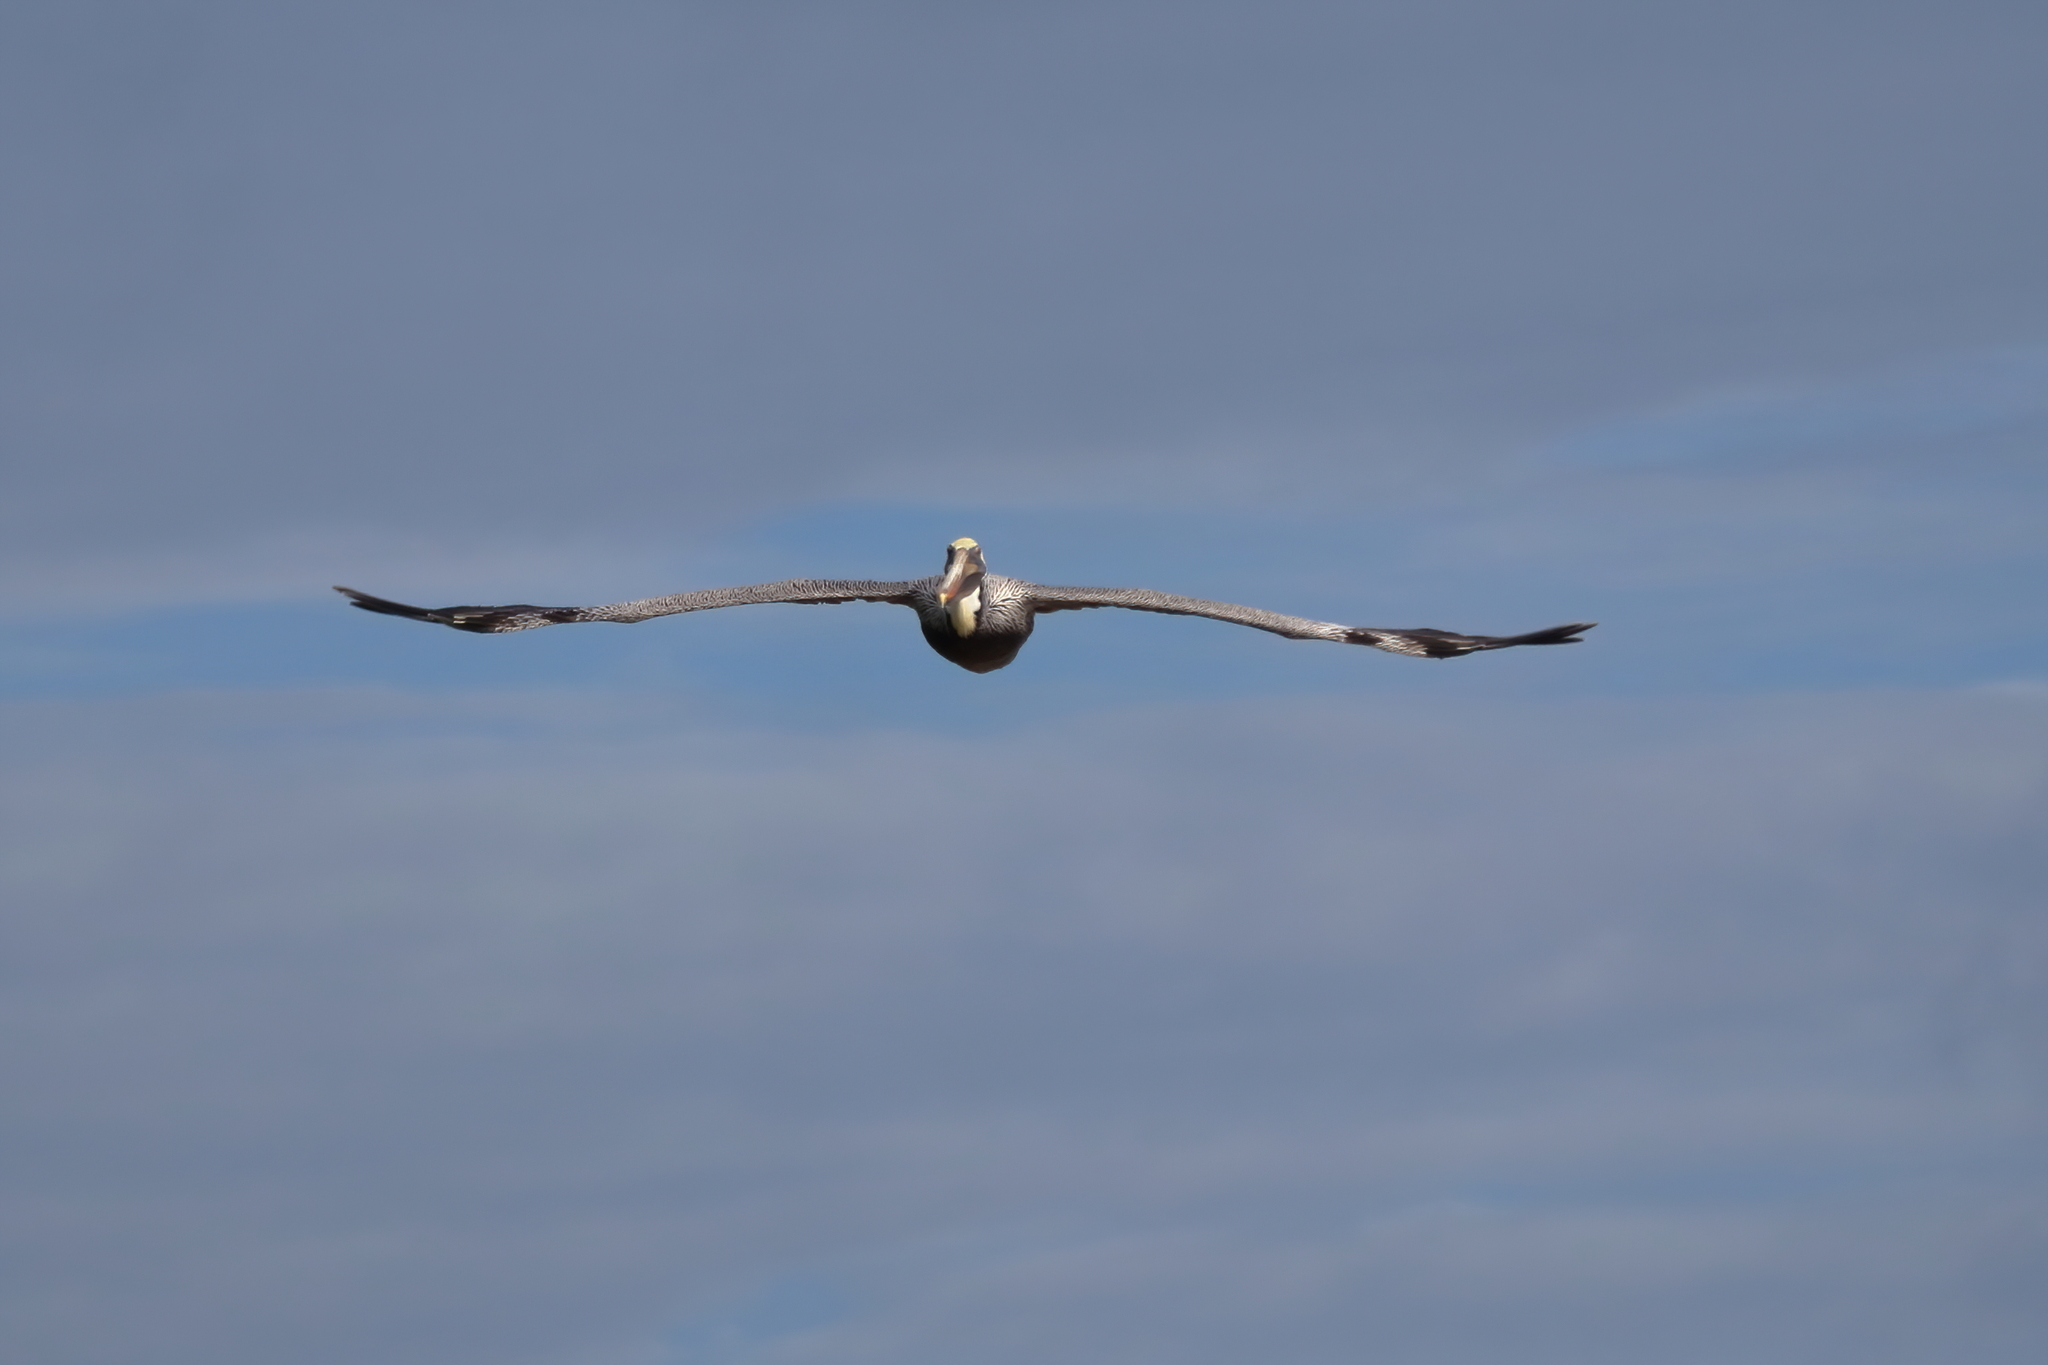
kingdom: Animalia
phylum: Chordata
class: Aves
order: Pelecaniformes
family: Pelecanidae
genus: Pelecanus
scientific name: Pelecanus occidentalis
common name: Brown pelican
